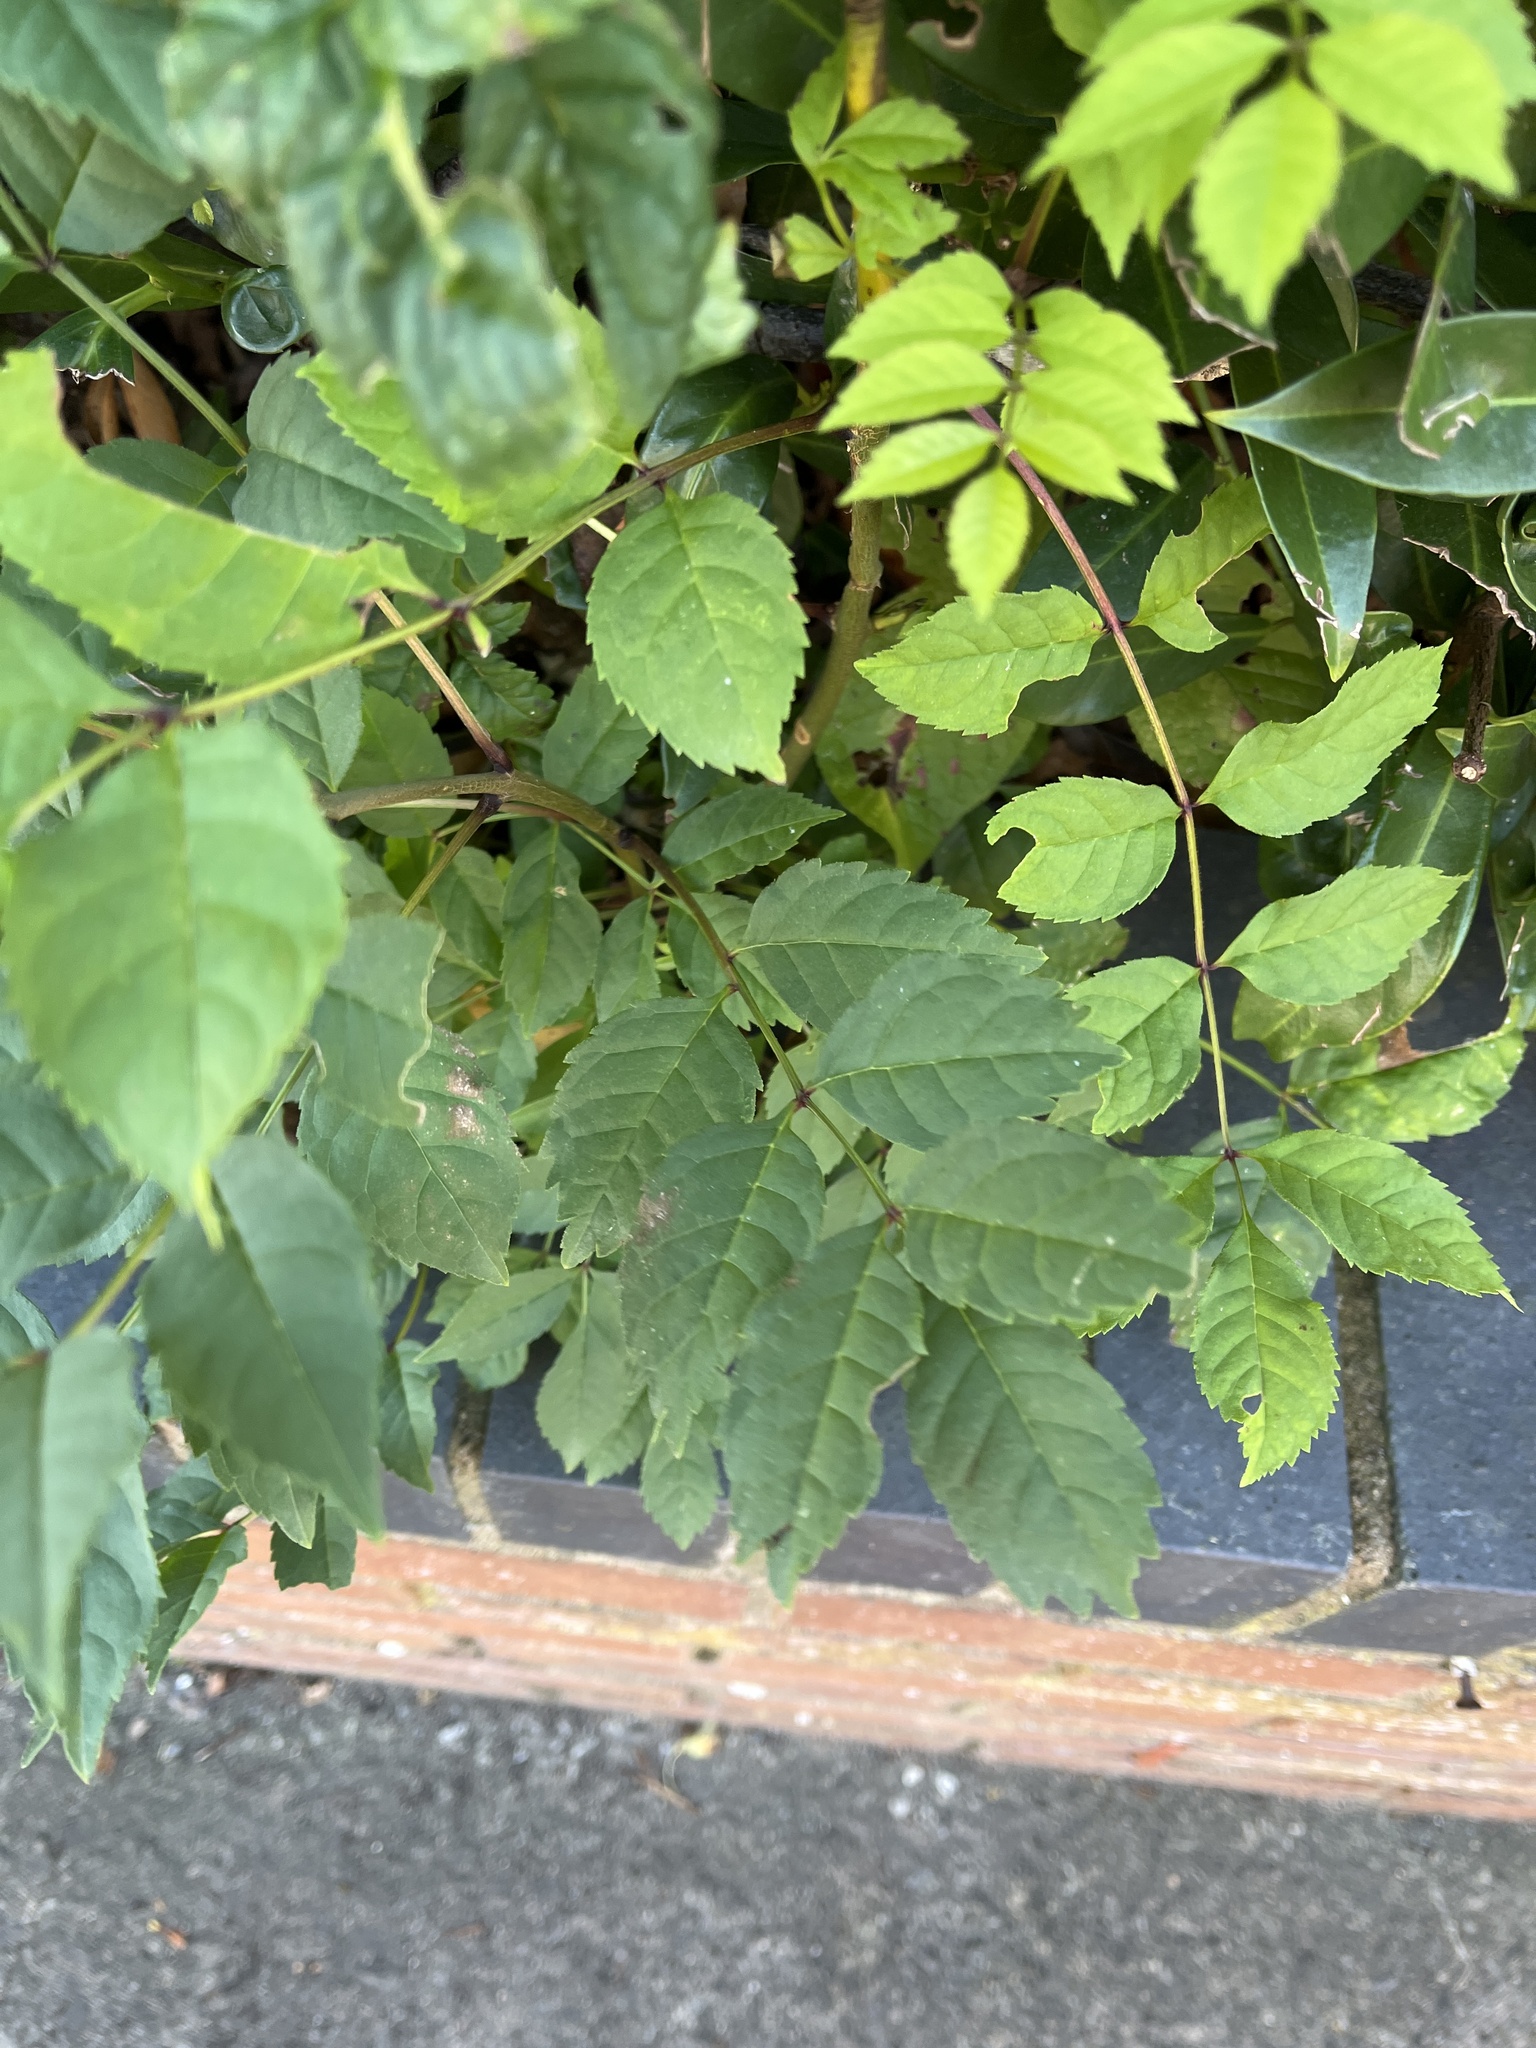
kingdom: Plantae
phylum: Tracheophyta
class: Magnoliopsida
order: Lamiales
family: Oleaceae
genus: Fraxinus
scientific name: Fraxinus excelsior
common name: European ash
